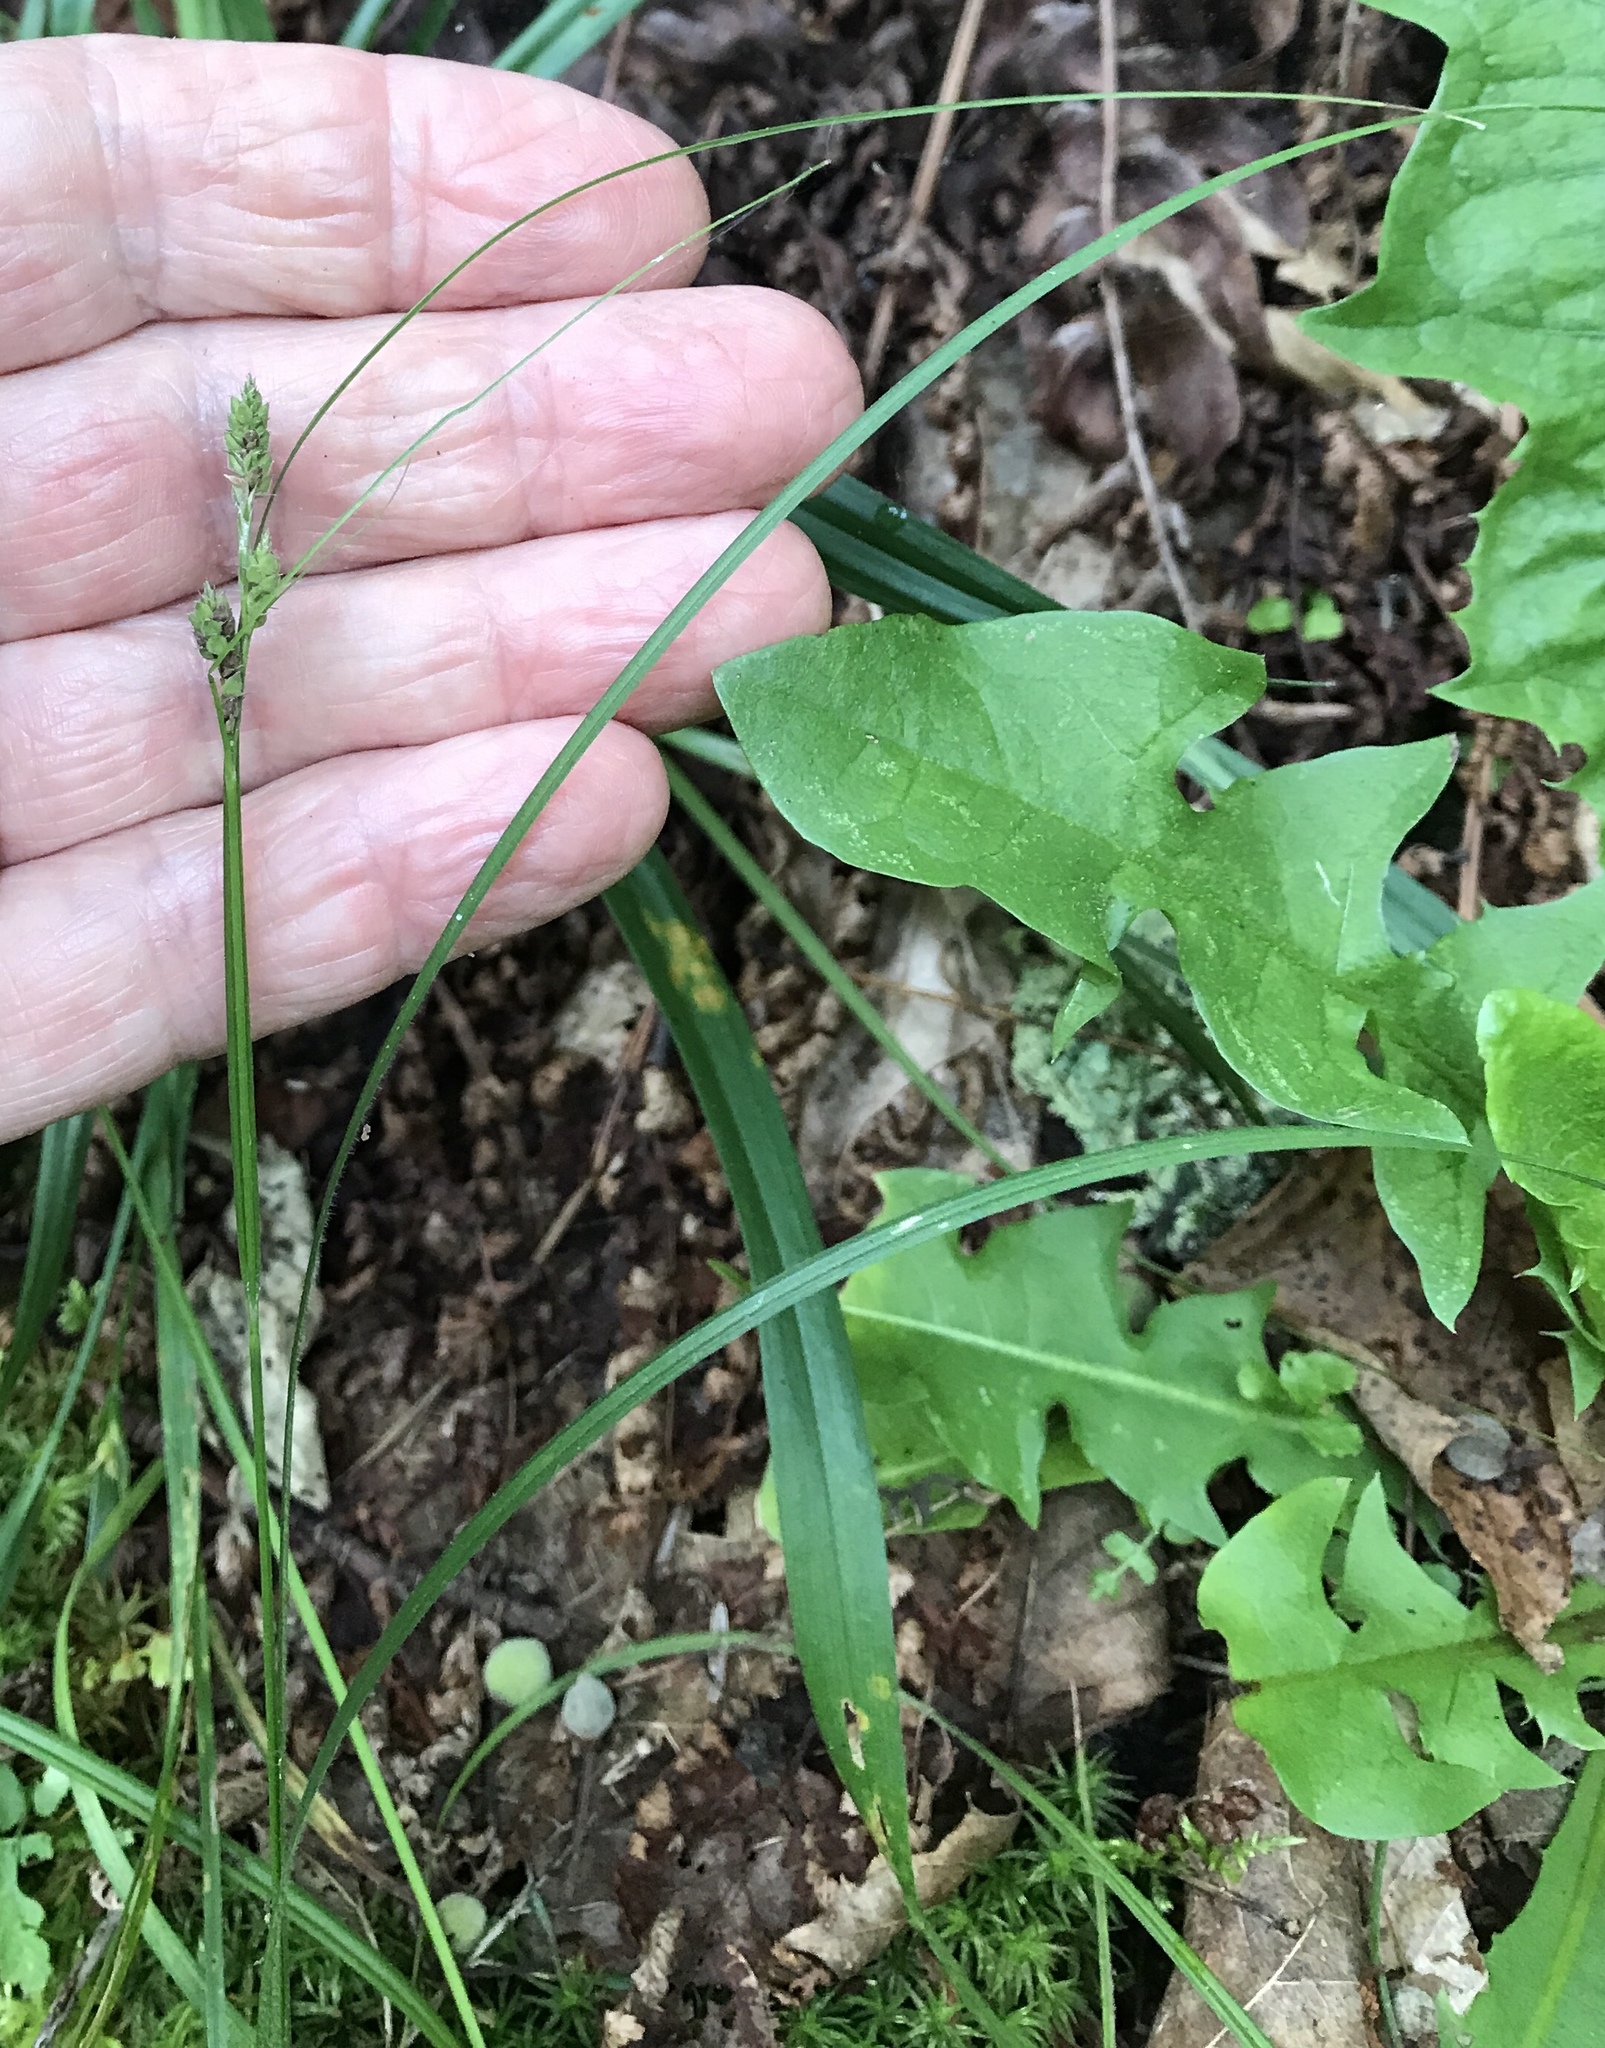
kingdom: Plantae
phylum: Tracheophyta
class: Liliopsida
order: Poales
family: Cyperaceae
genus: Carex
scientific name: Carex swanii
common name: Downy green sedge
